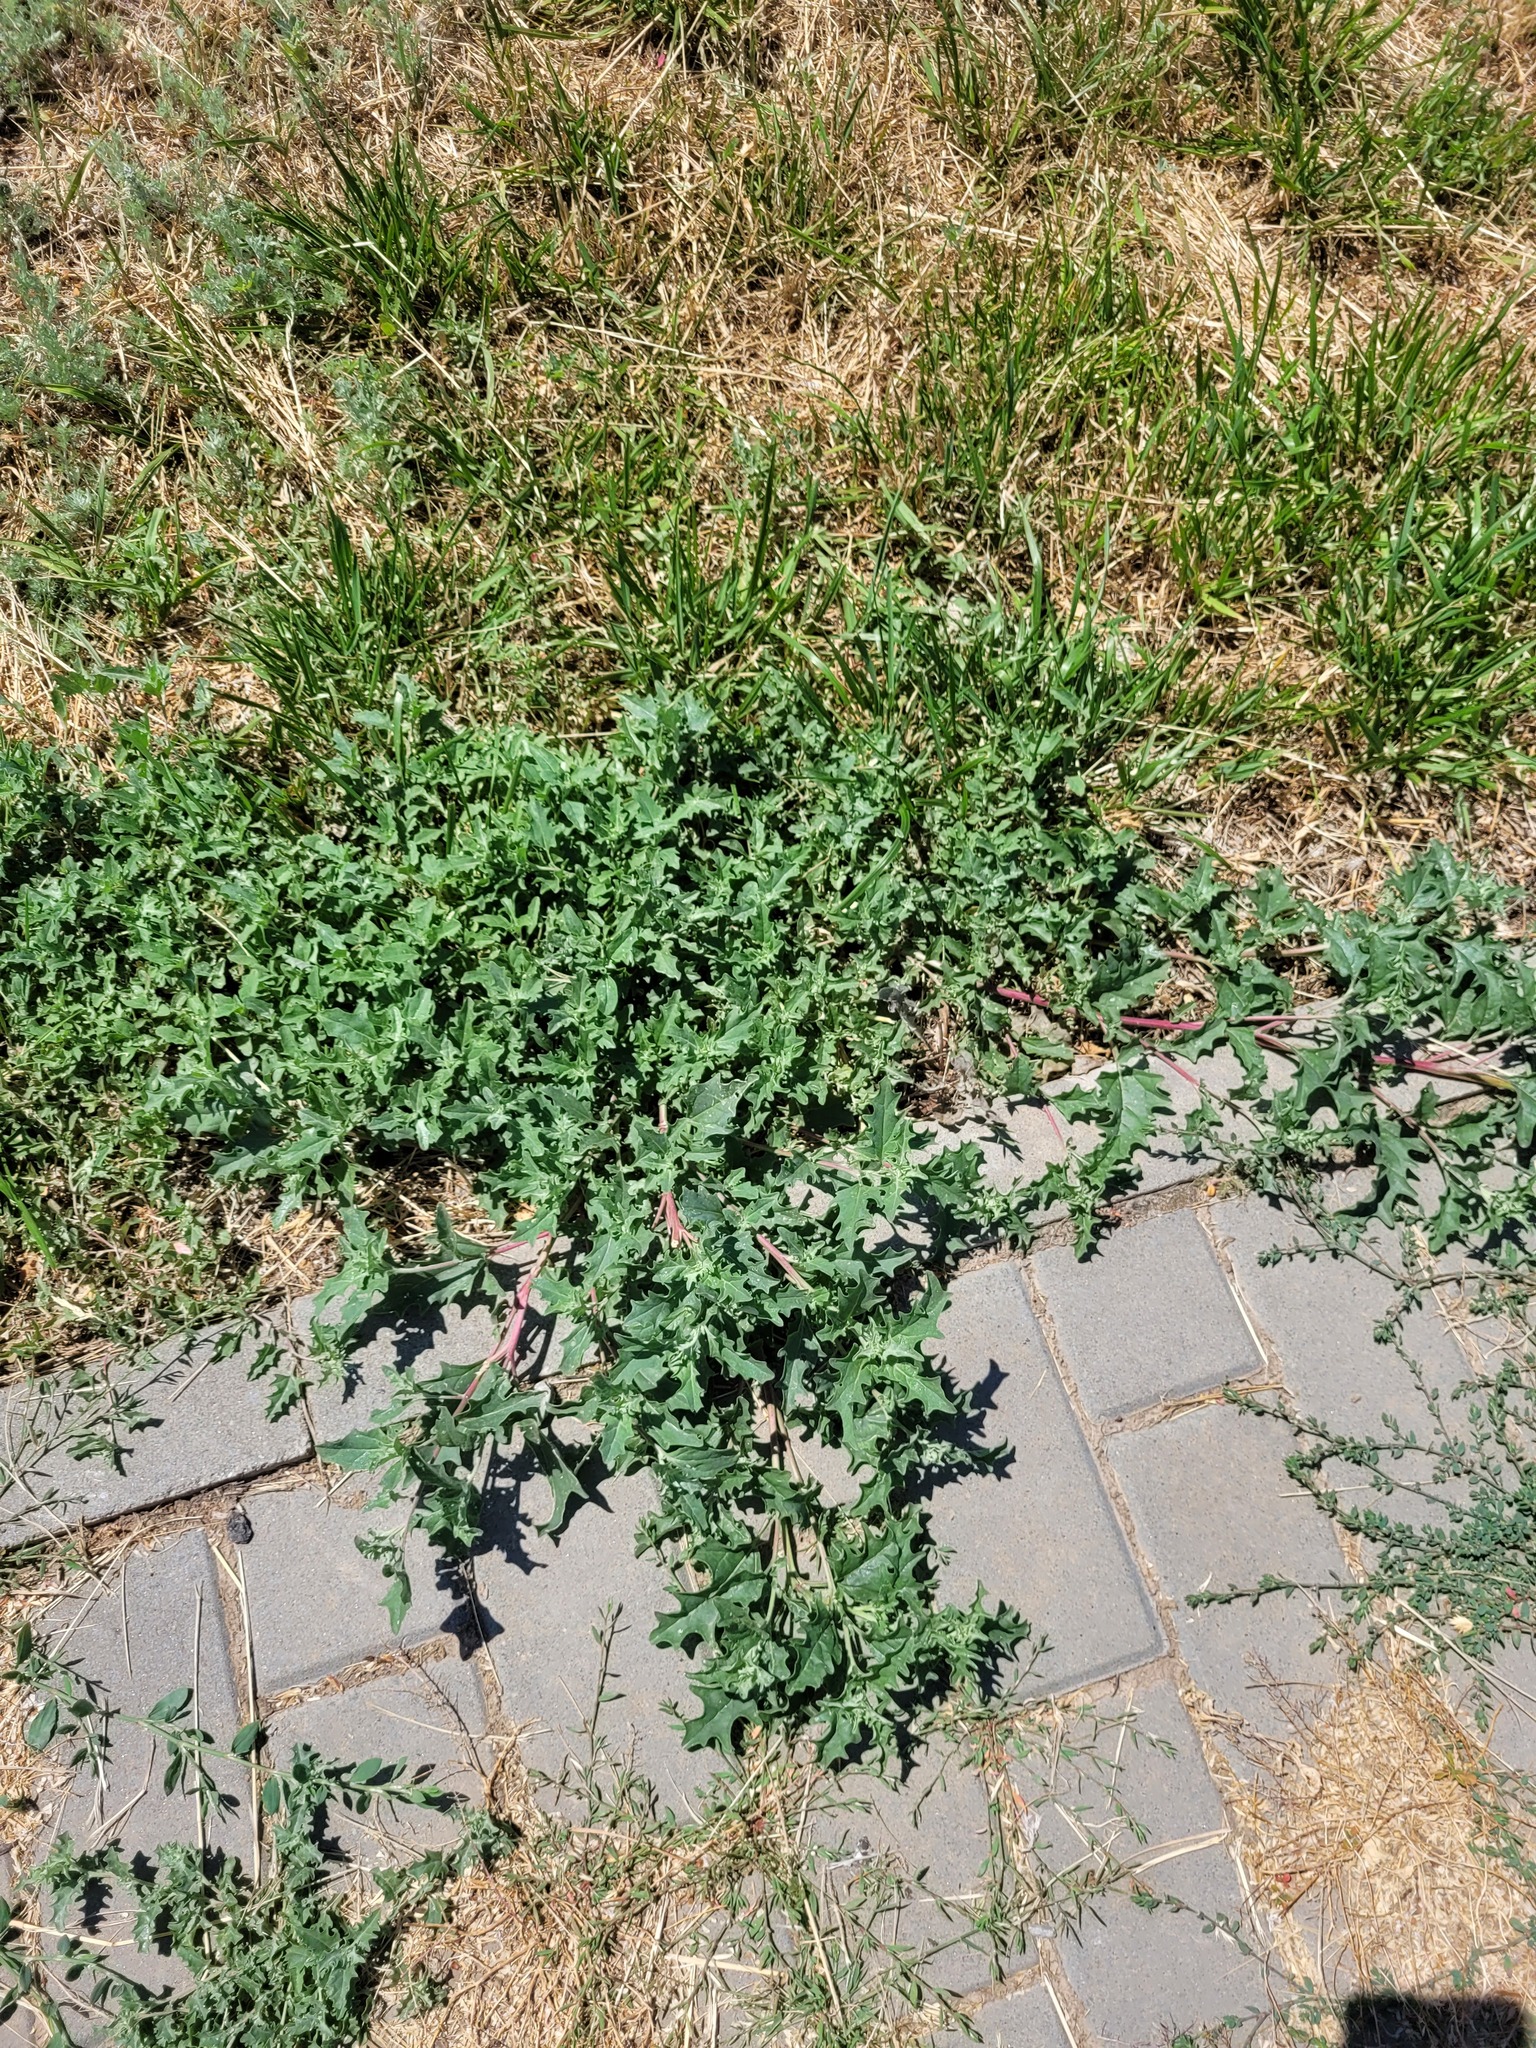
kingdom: Plantae
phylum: Tracheophyta
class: Magnoliopsida
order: Caryophyllales
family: Amaranthaceae
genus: Atriplex
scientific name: Atriplex tatarica
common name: Tatarian orache
